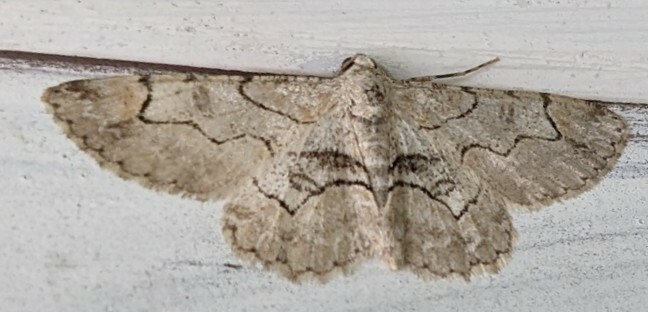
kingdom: Animalia
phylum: Arthropoda
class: Insecta
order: Lepidoptera
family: Geometridae
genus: Iridopsis
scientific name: Iridopsis larvaria
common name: Bent-line gray
